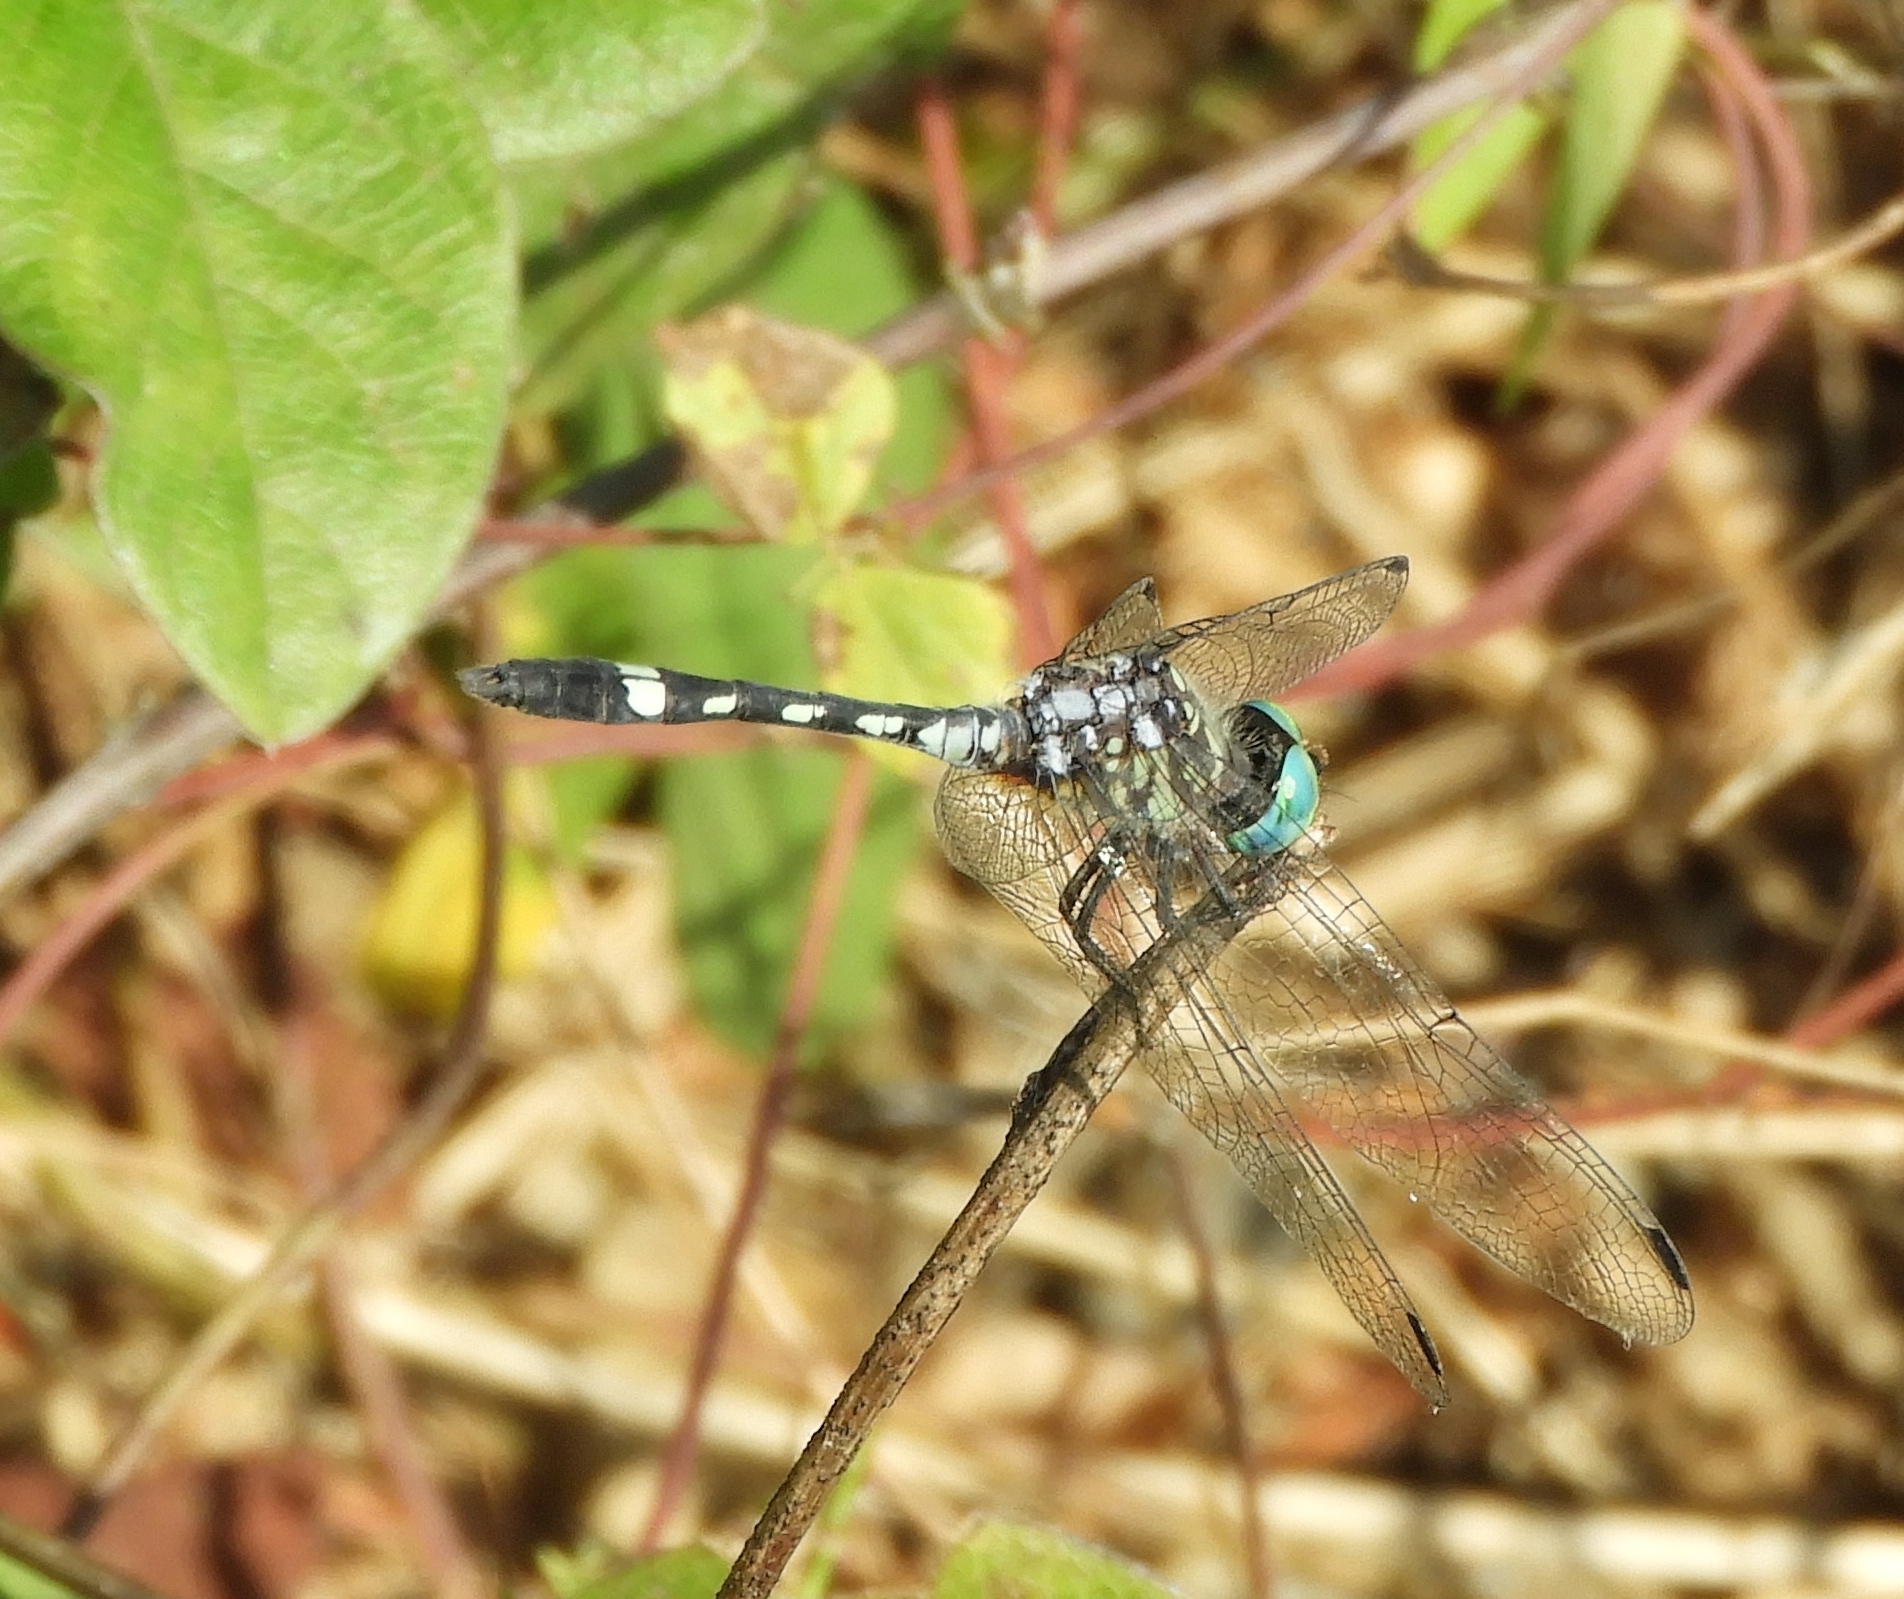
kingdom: Animalia
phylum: Arthropoda
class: Insecta
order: Odonata
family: Libellulidae
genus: Micrathyria
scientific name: Micrathyria hagenii
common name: Thornbush dasher
